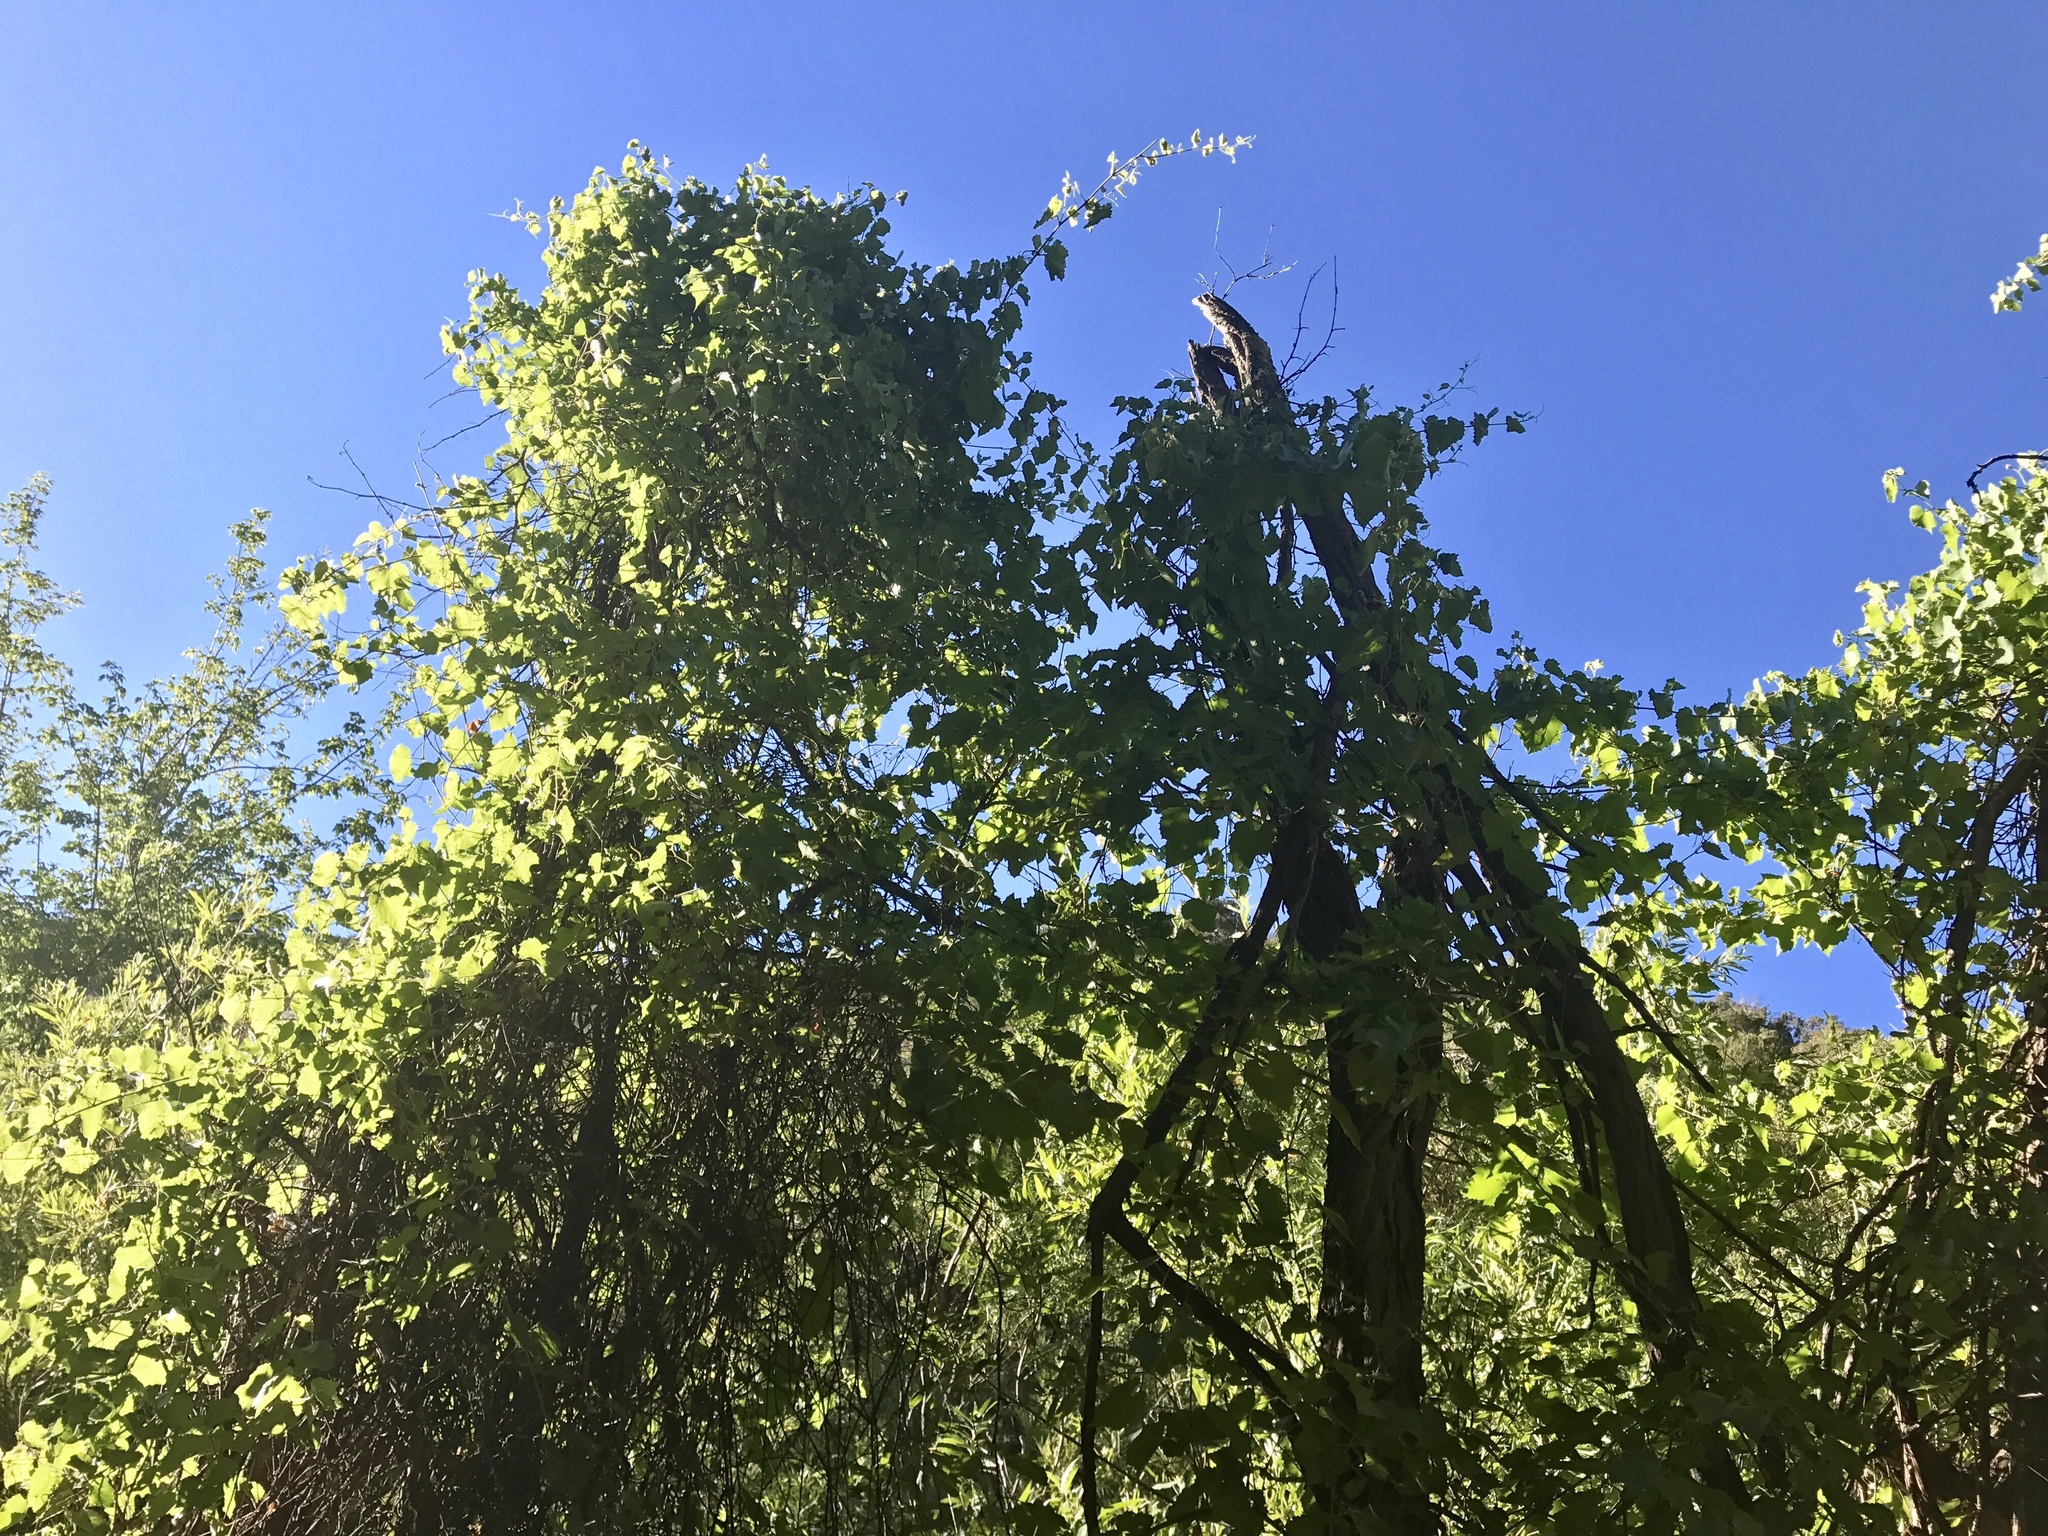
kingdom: Plantae
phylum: Tracheophyta
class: Magnoliopsida
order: Vitales
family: Vitaceae
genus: Vitis
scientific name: Vitis arizonica
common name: Canyon grape
